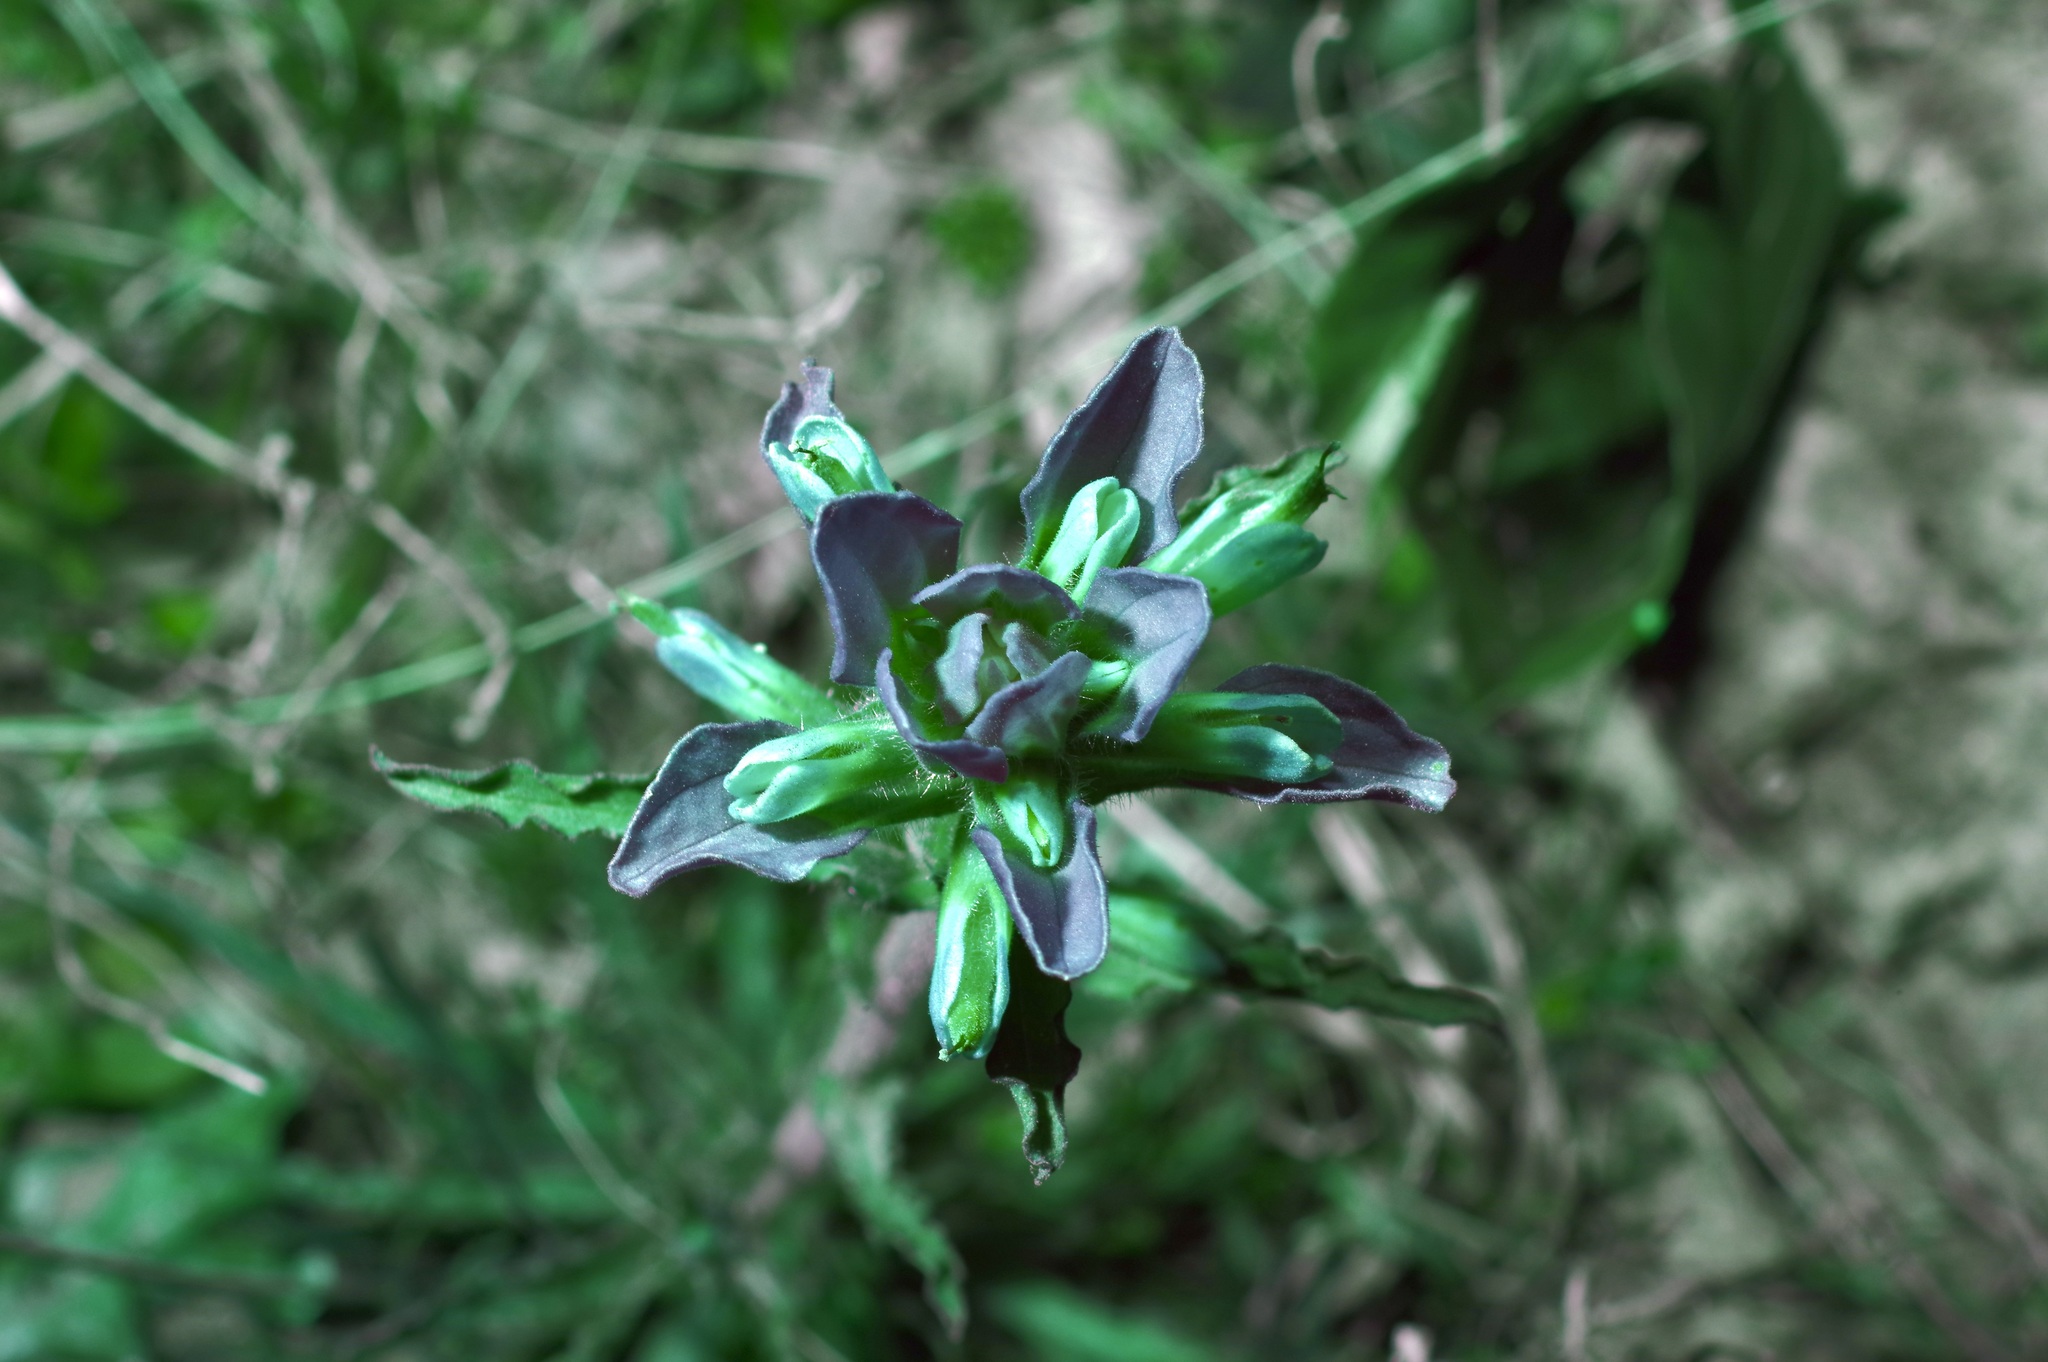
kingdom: Plantae
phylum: Tracheophyta
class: Magnoliopsida
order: Lamiales
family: Orobanchaceae
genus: Castilleja
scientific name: Castilleja indivisa
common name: Texas paintbrush
